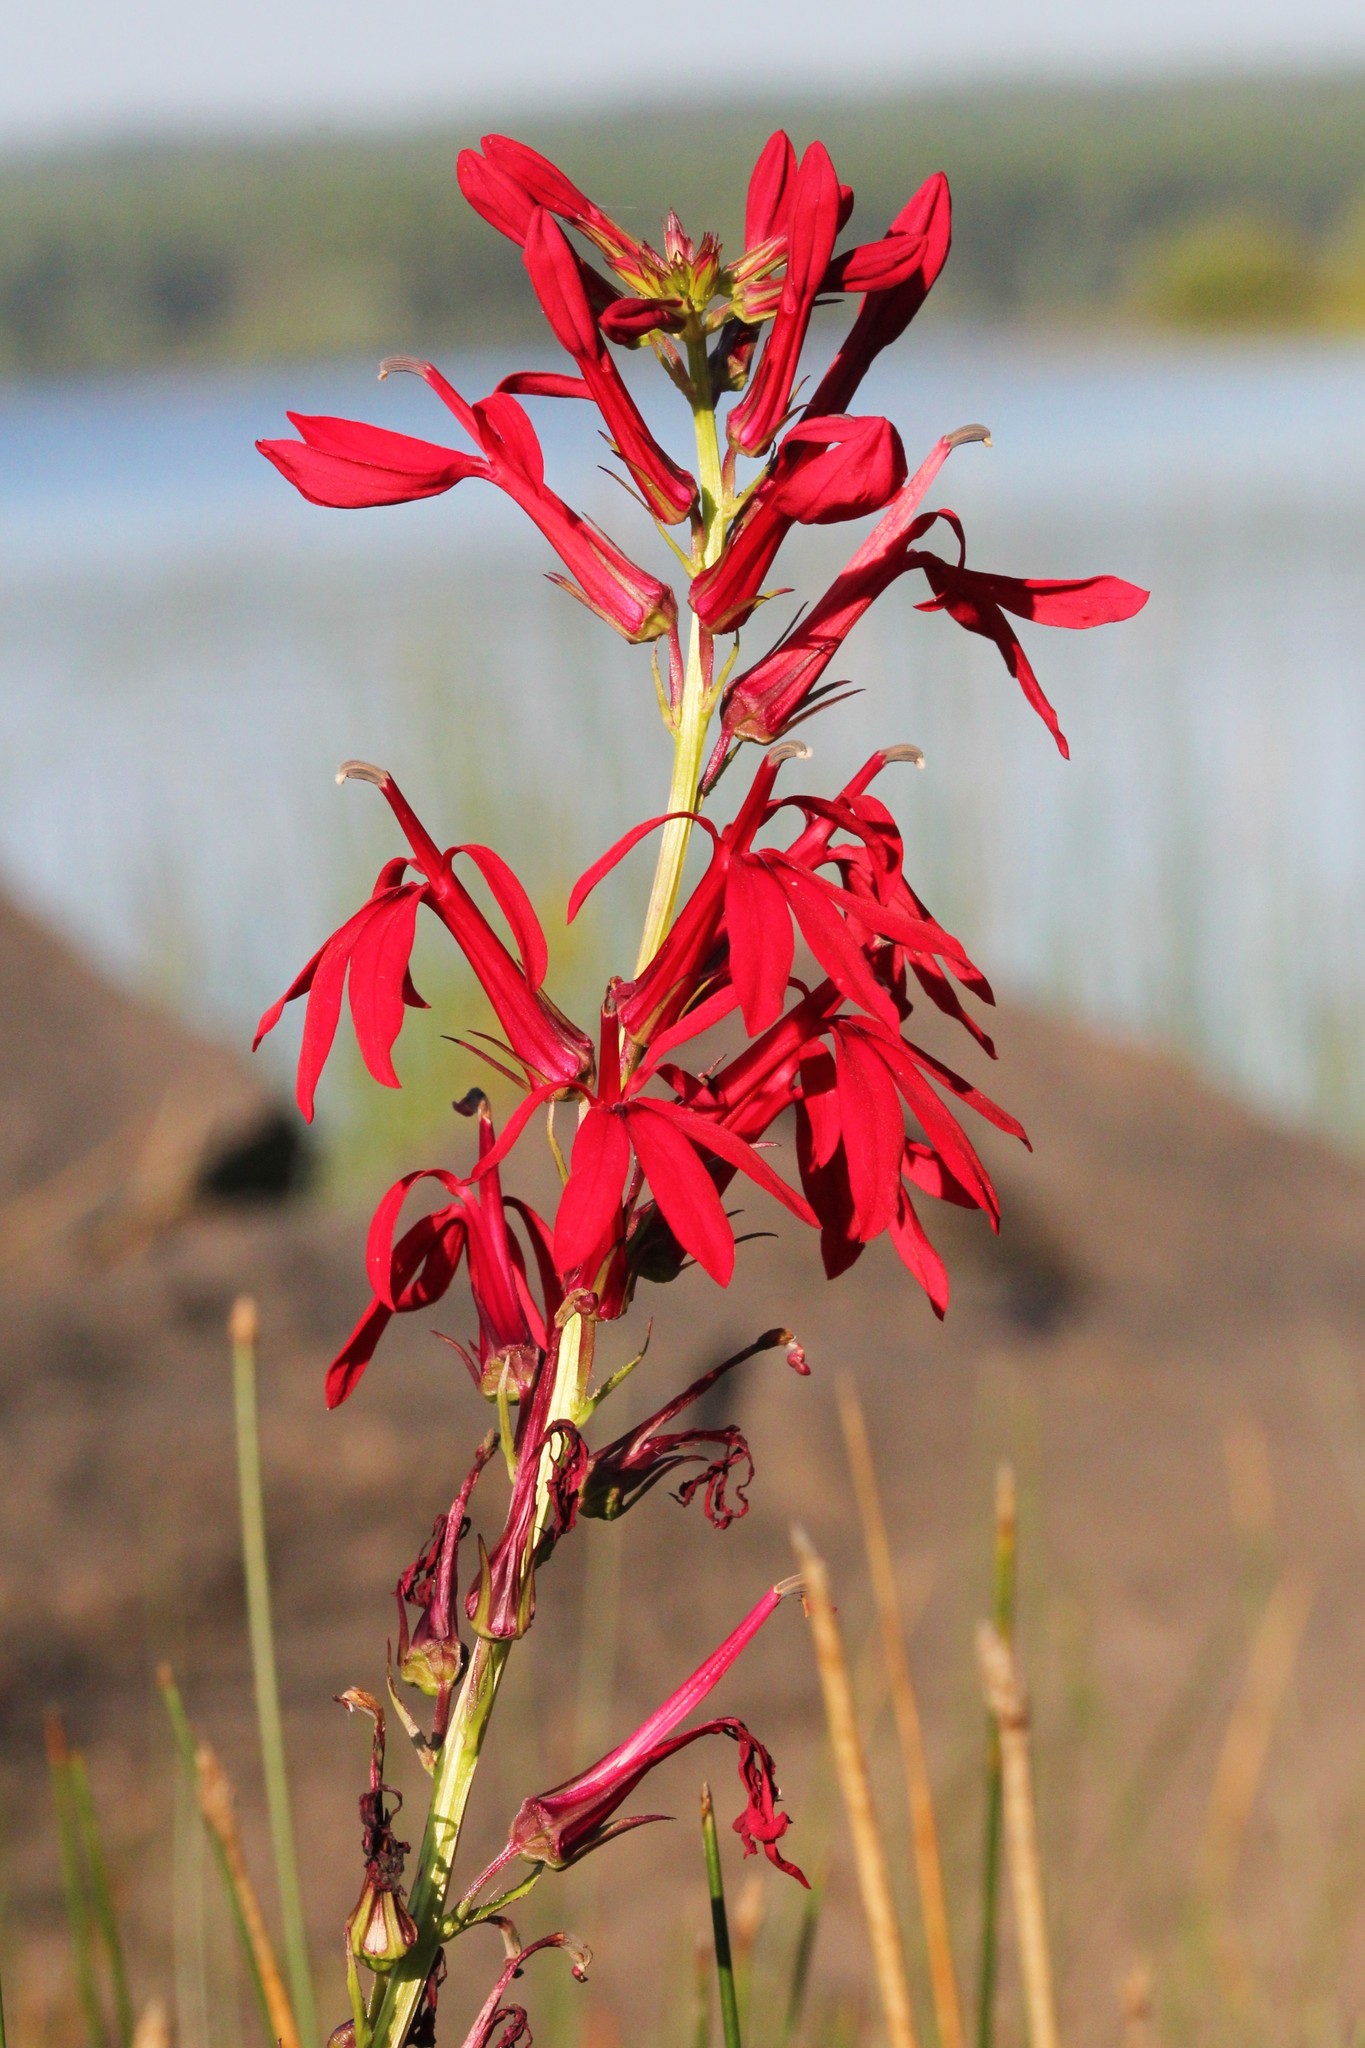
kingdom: Plantae
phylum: Tracheophyta
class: Magnoliopsida
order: Asterales
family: Campanulaceae
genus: Lobelia
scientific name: Lobelia cardinalis
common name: Cardinal flower
